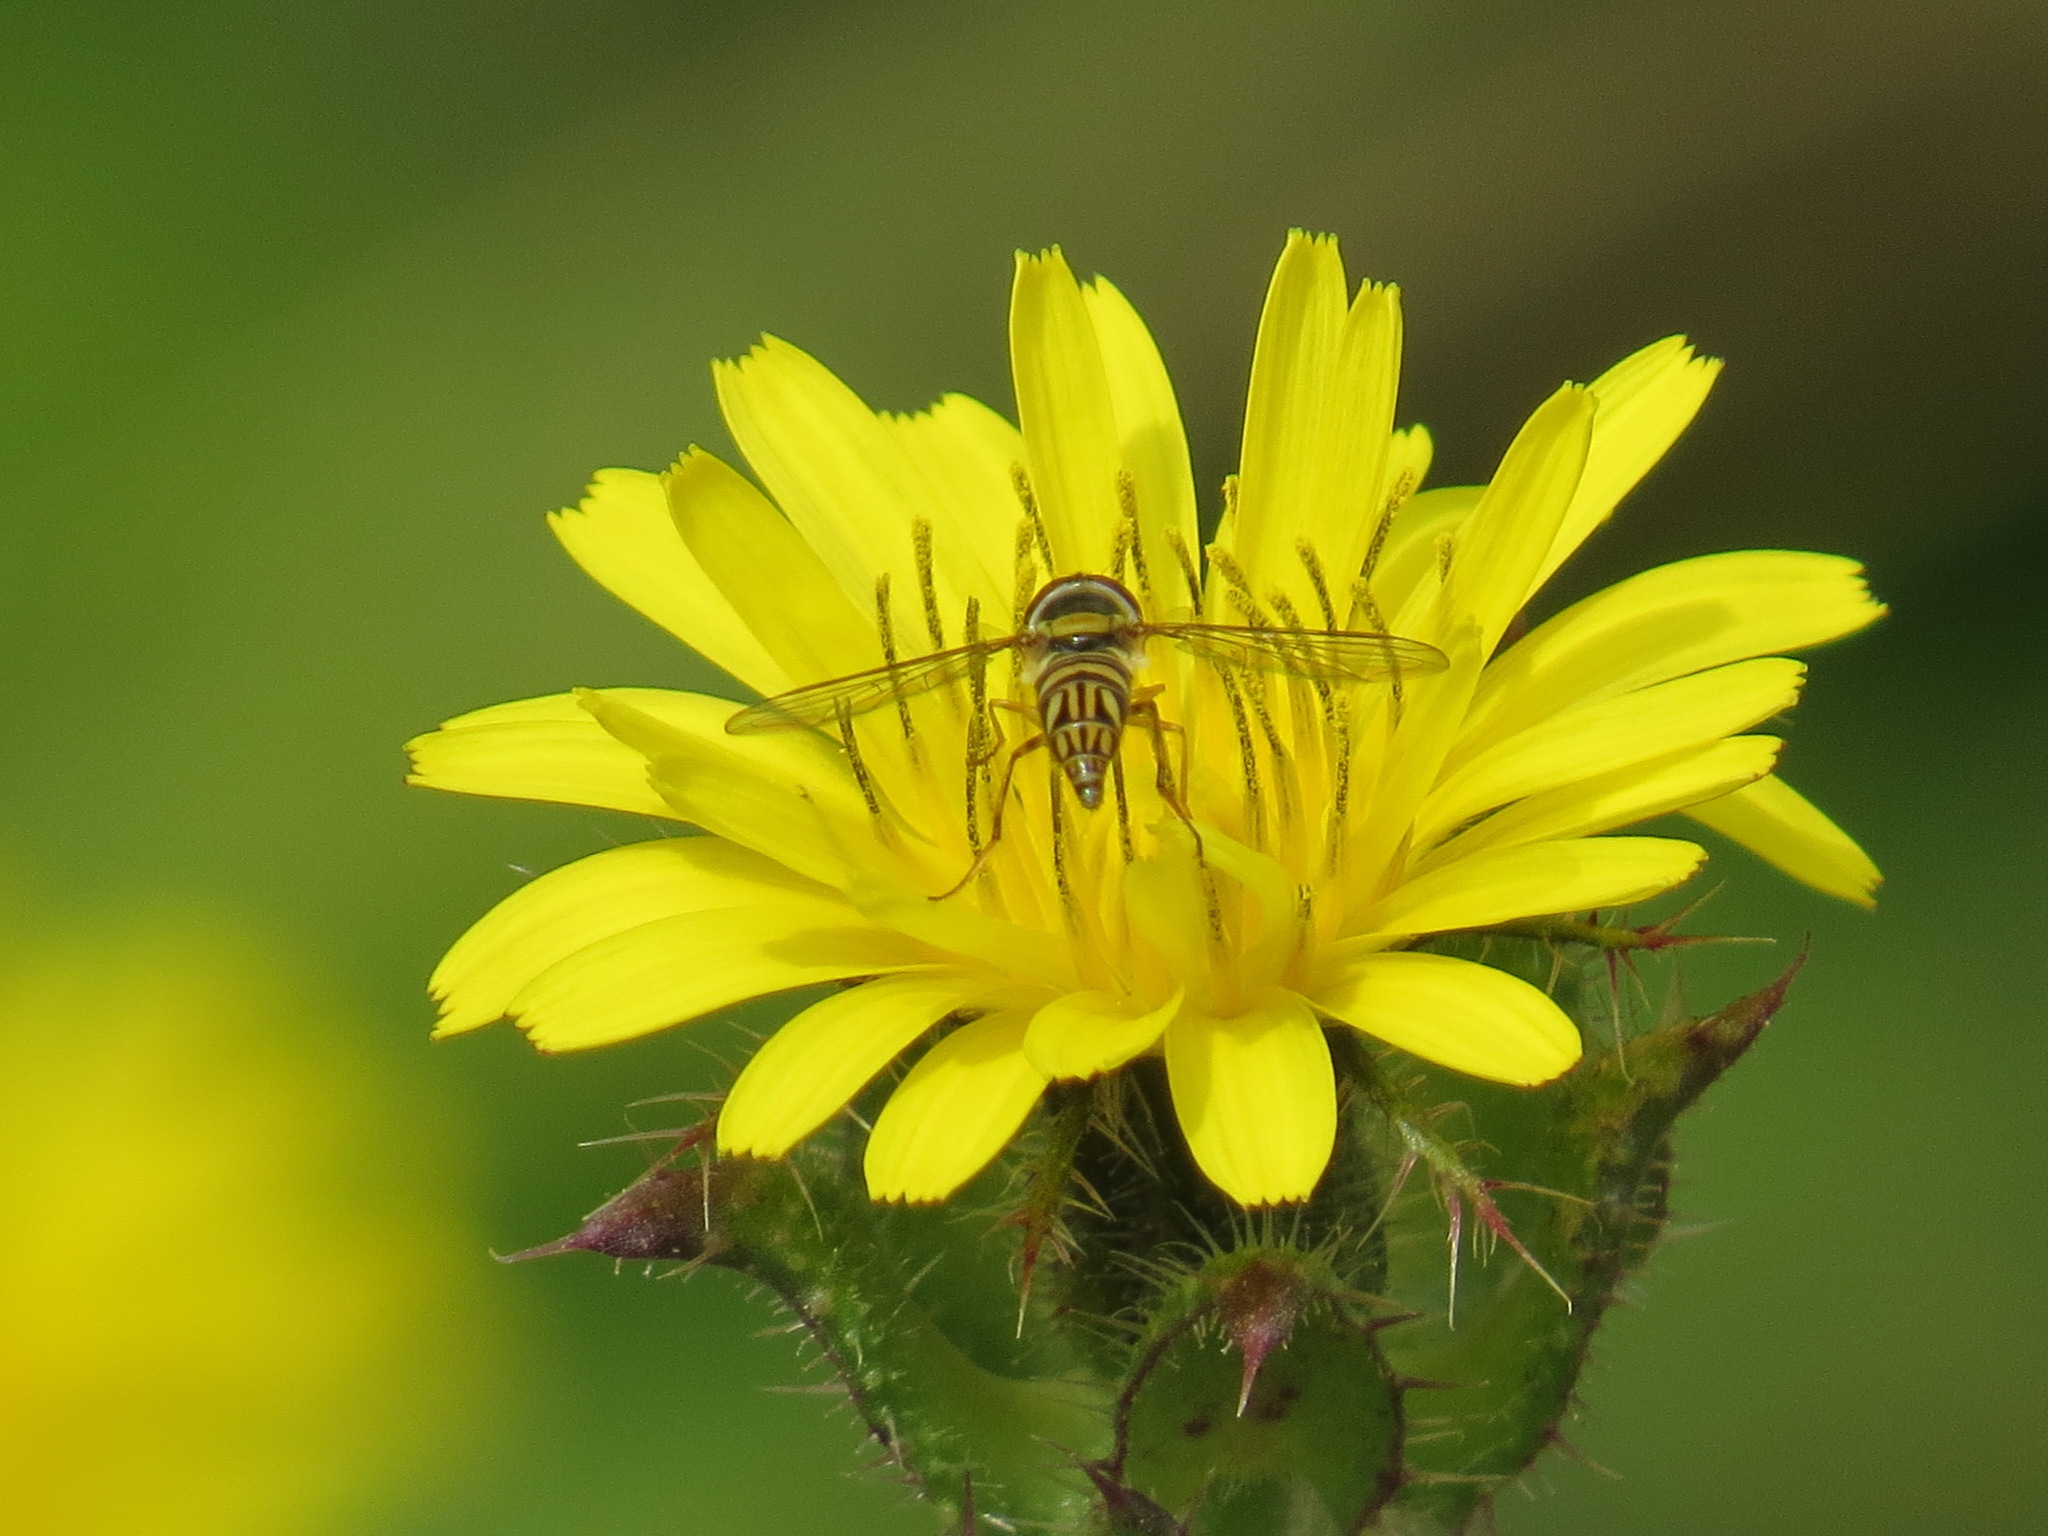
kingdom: Animalia
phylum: Arthropoda
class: Insecta
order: Diptera
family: Syrphidae
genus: Allograpta
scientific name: Allograpta obliqua
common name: Common oblique syrphid
